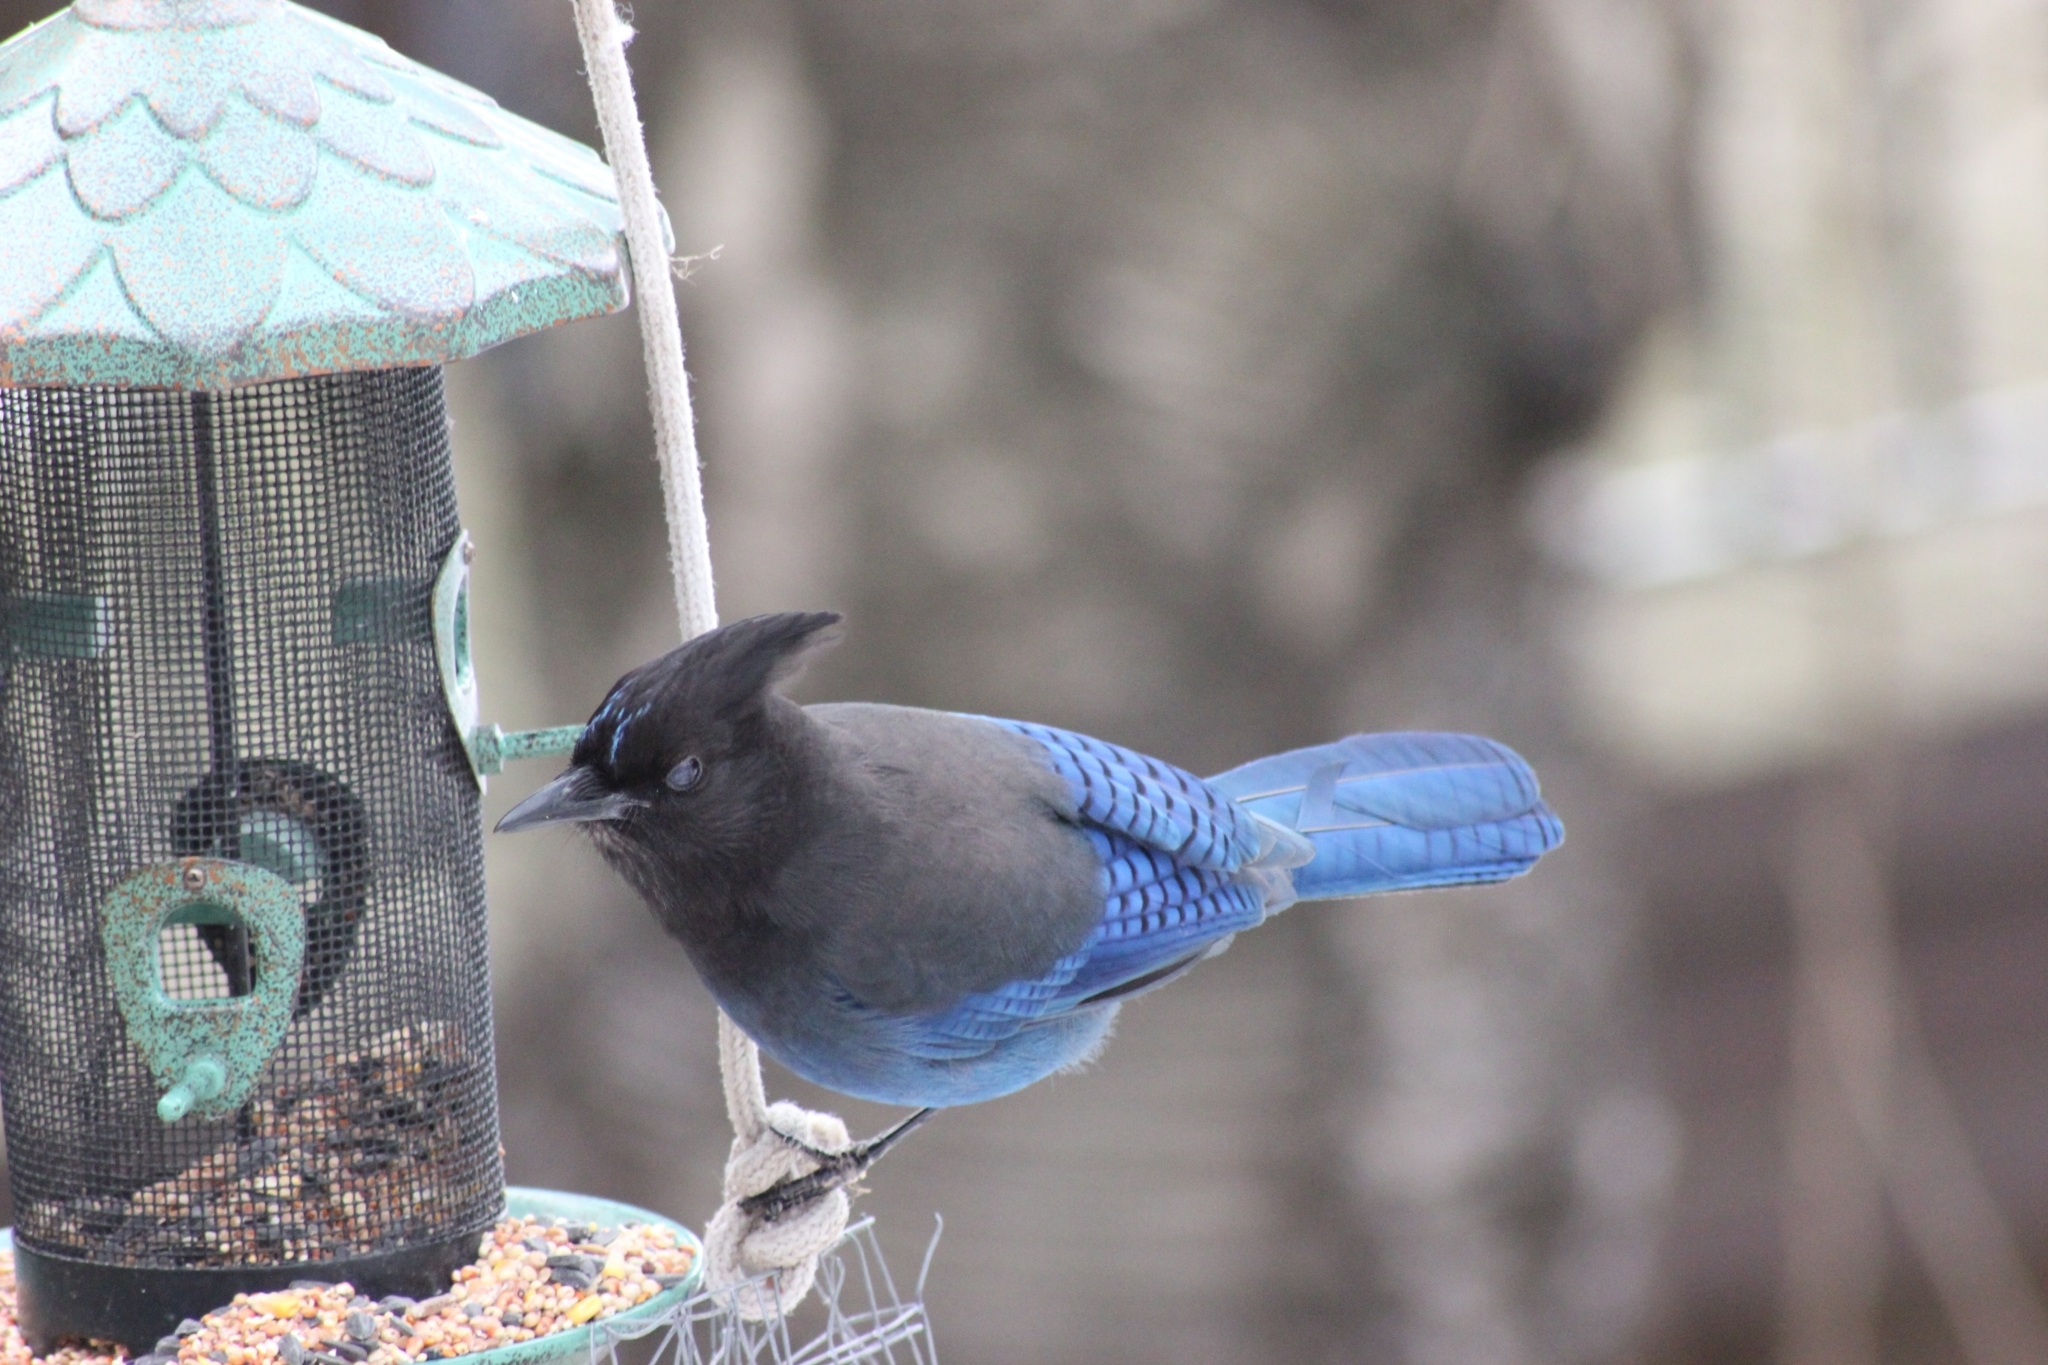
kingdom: Animalia
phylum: Chordata
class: Aves
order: Passeriformes
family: Corvidae
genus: Cyanocitta
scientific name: Cyanocitta stelleri
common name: Steller's jay
